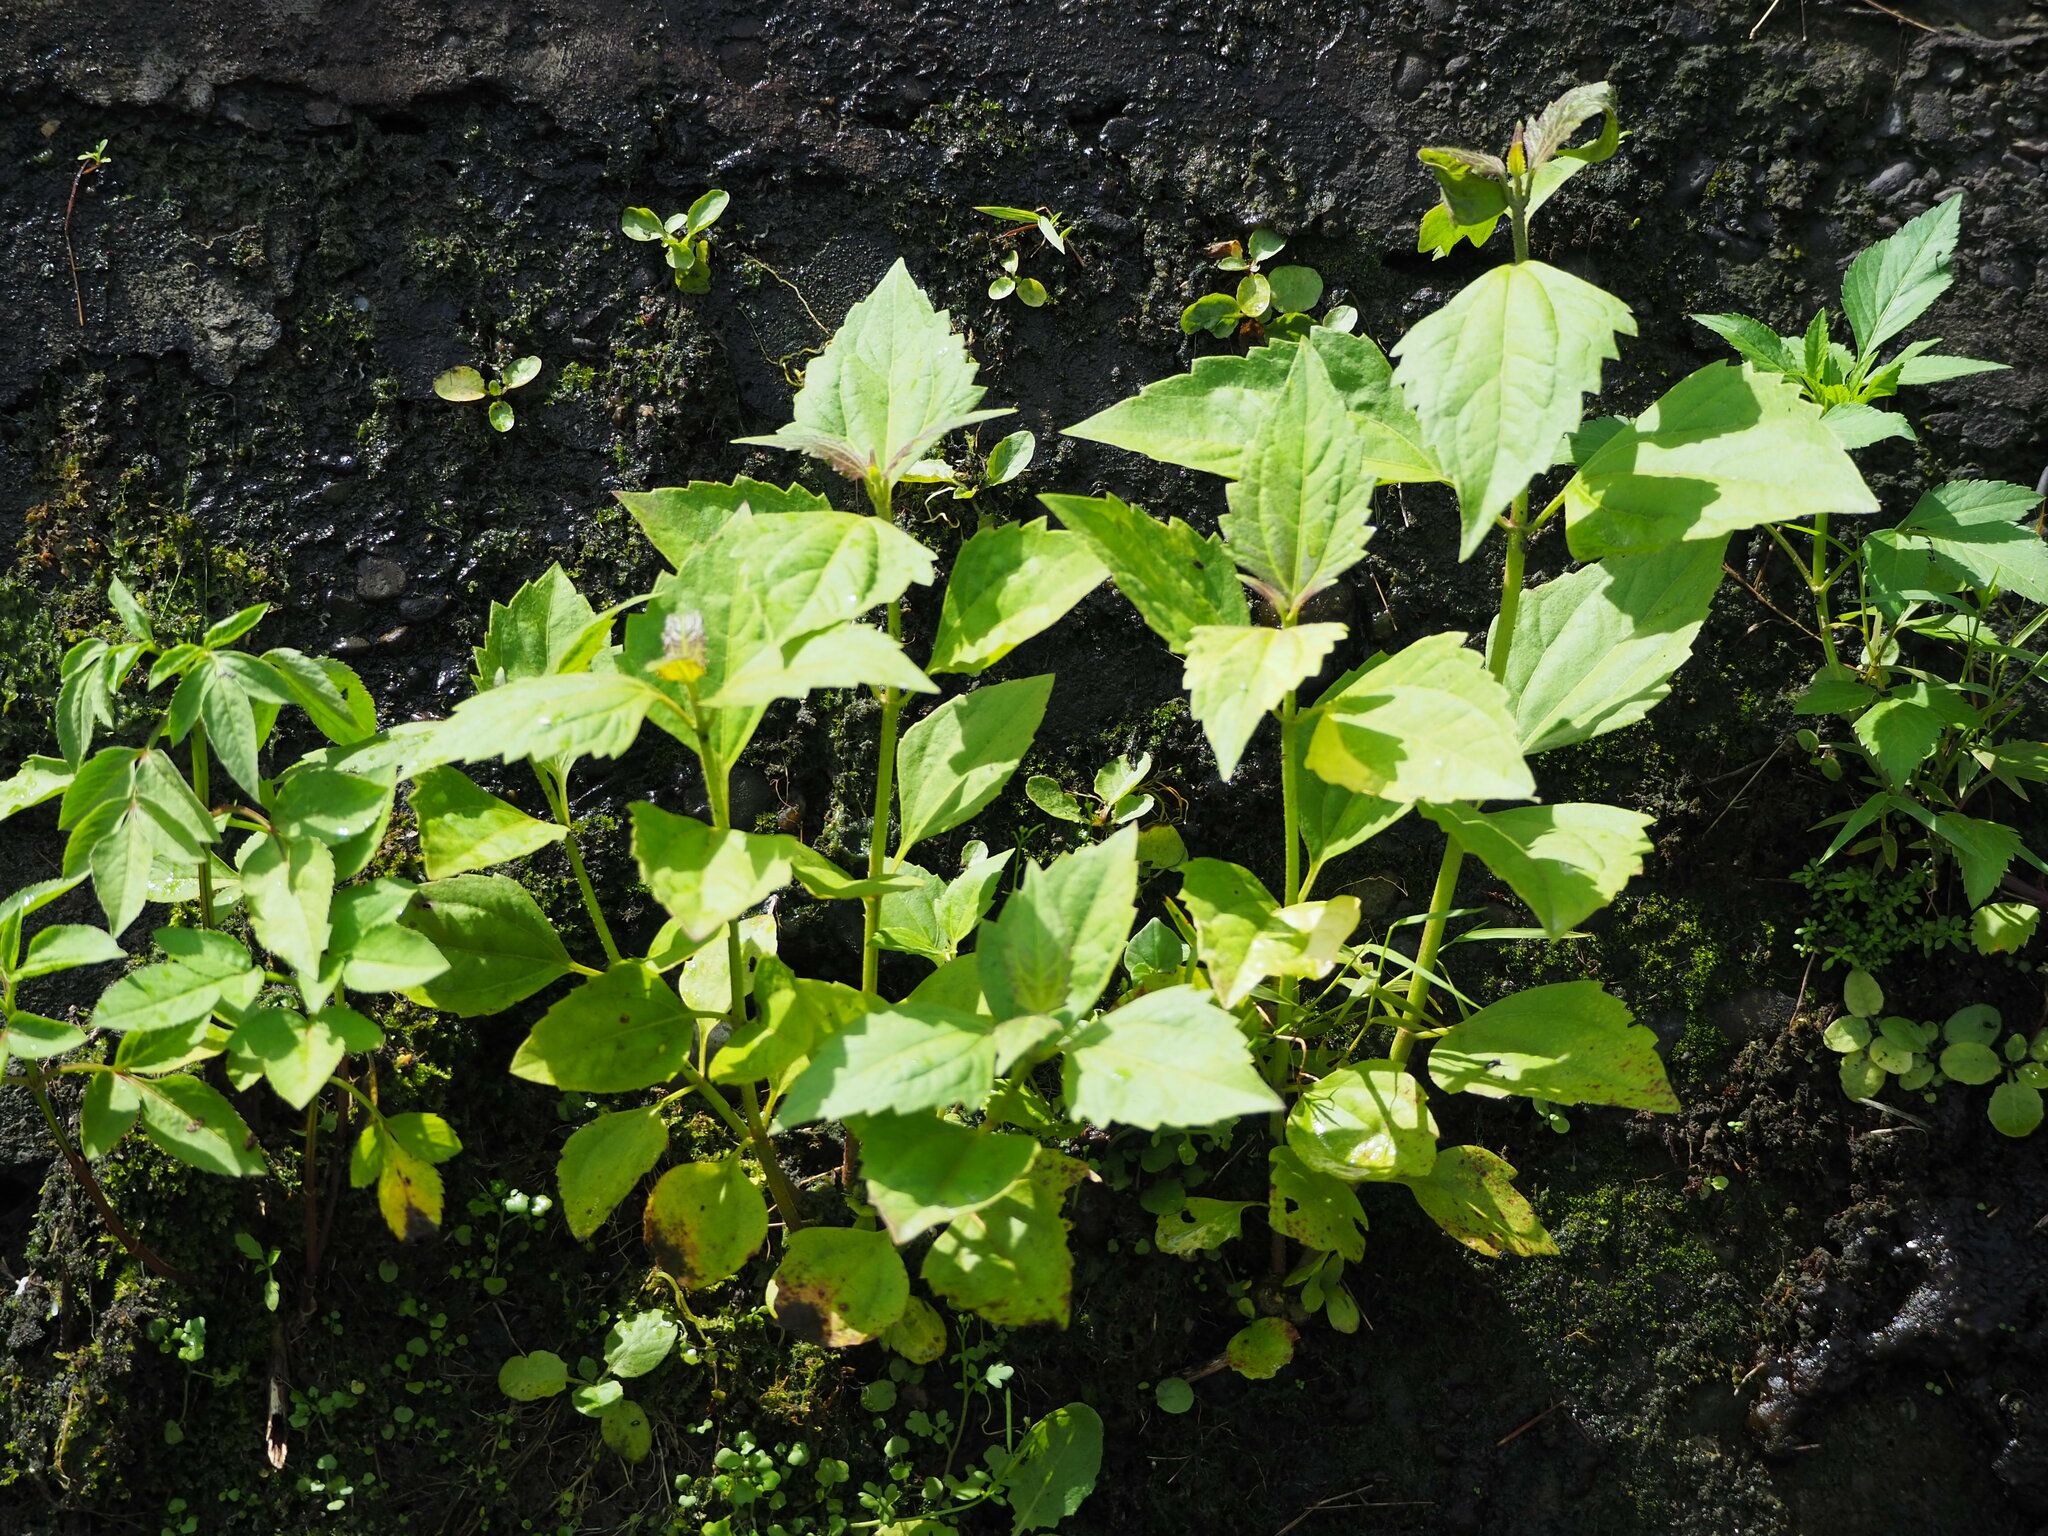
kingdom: Plantae
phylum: Tracheophyta
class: Magnoliopsida
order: Asterales
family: Asteraceae
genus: Chromolaena
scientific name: Chromolaena odorata
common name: Siamweed
